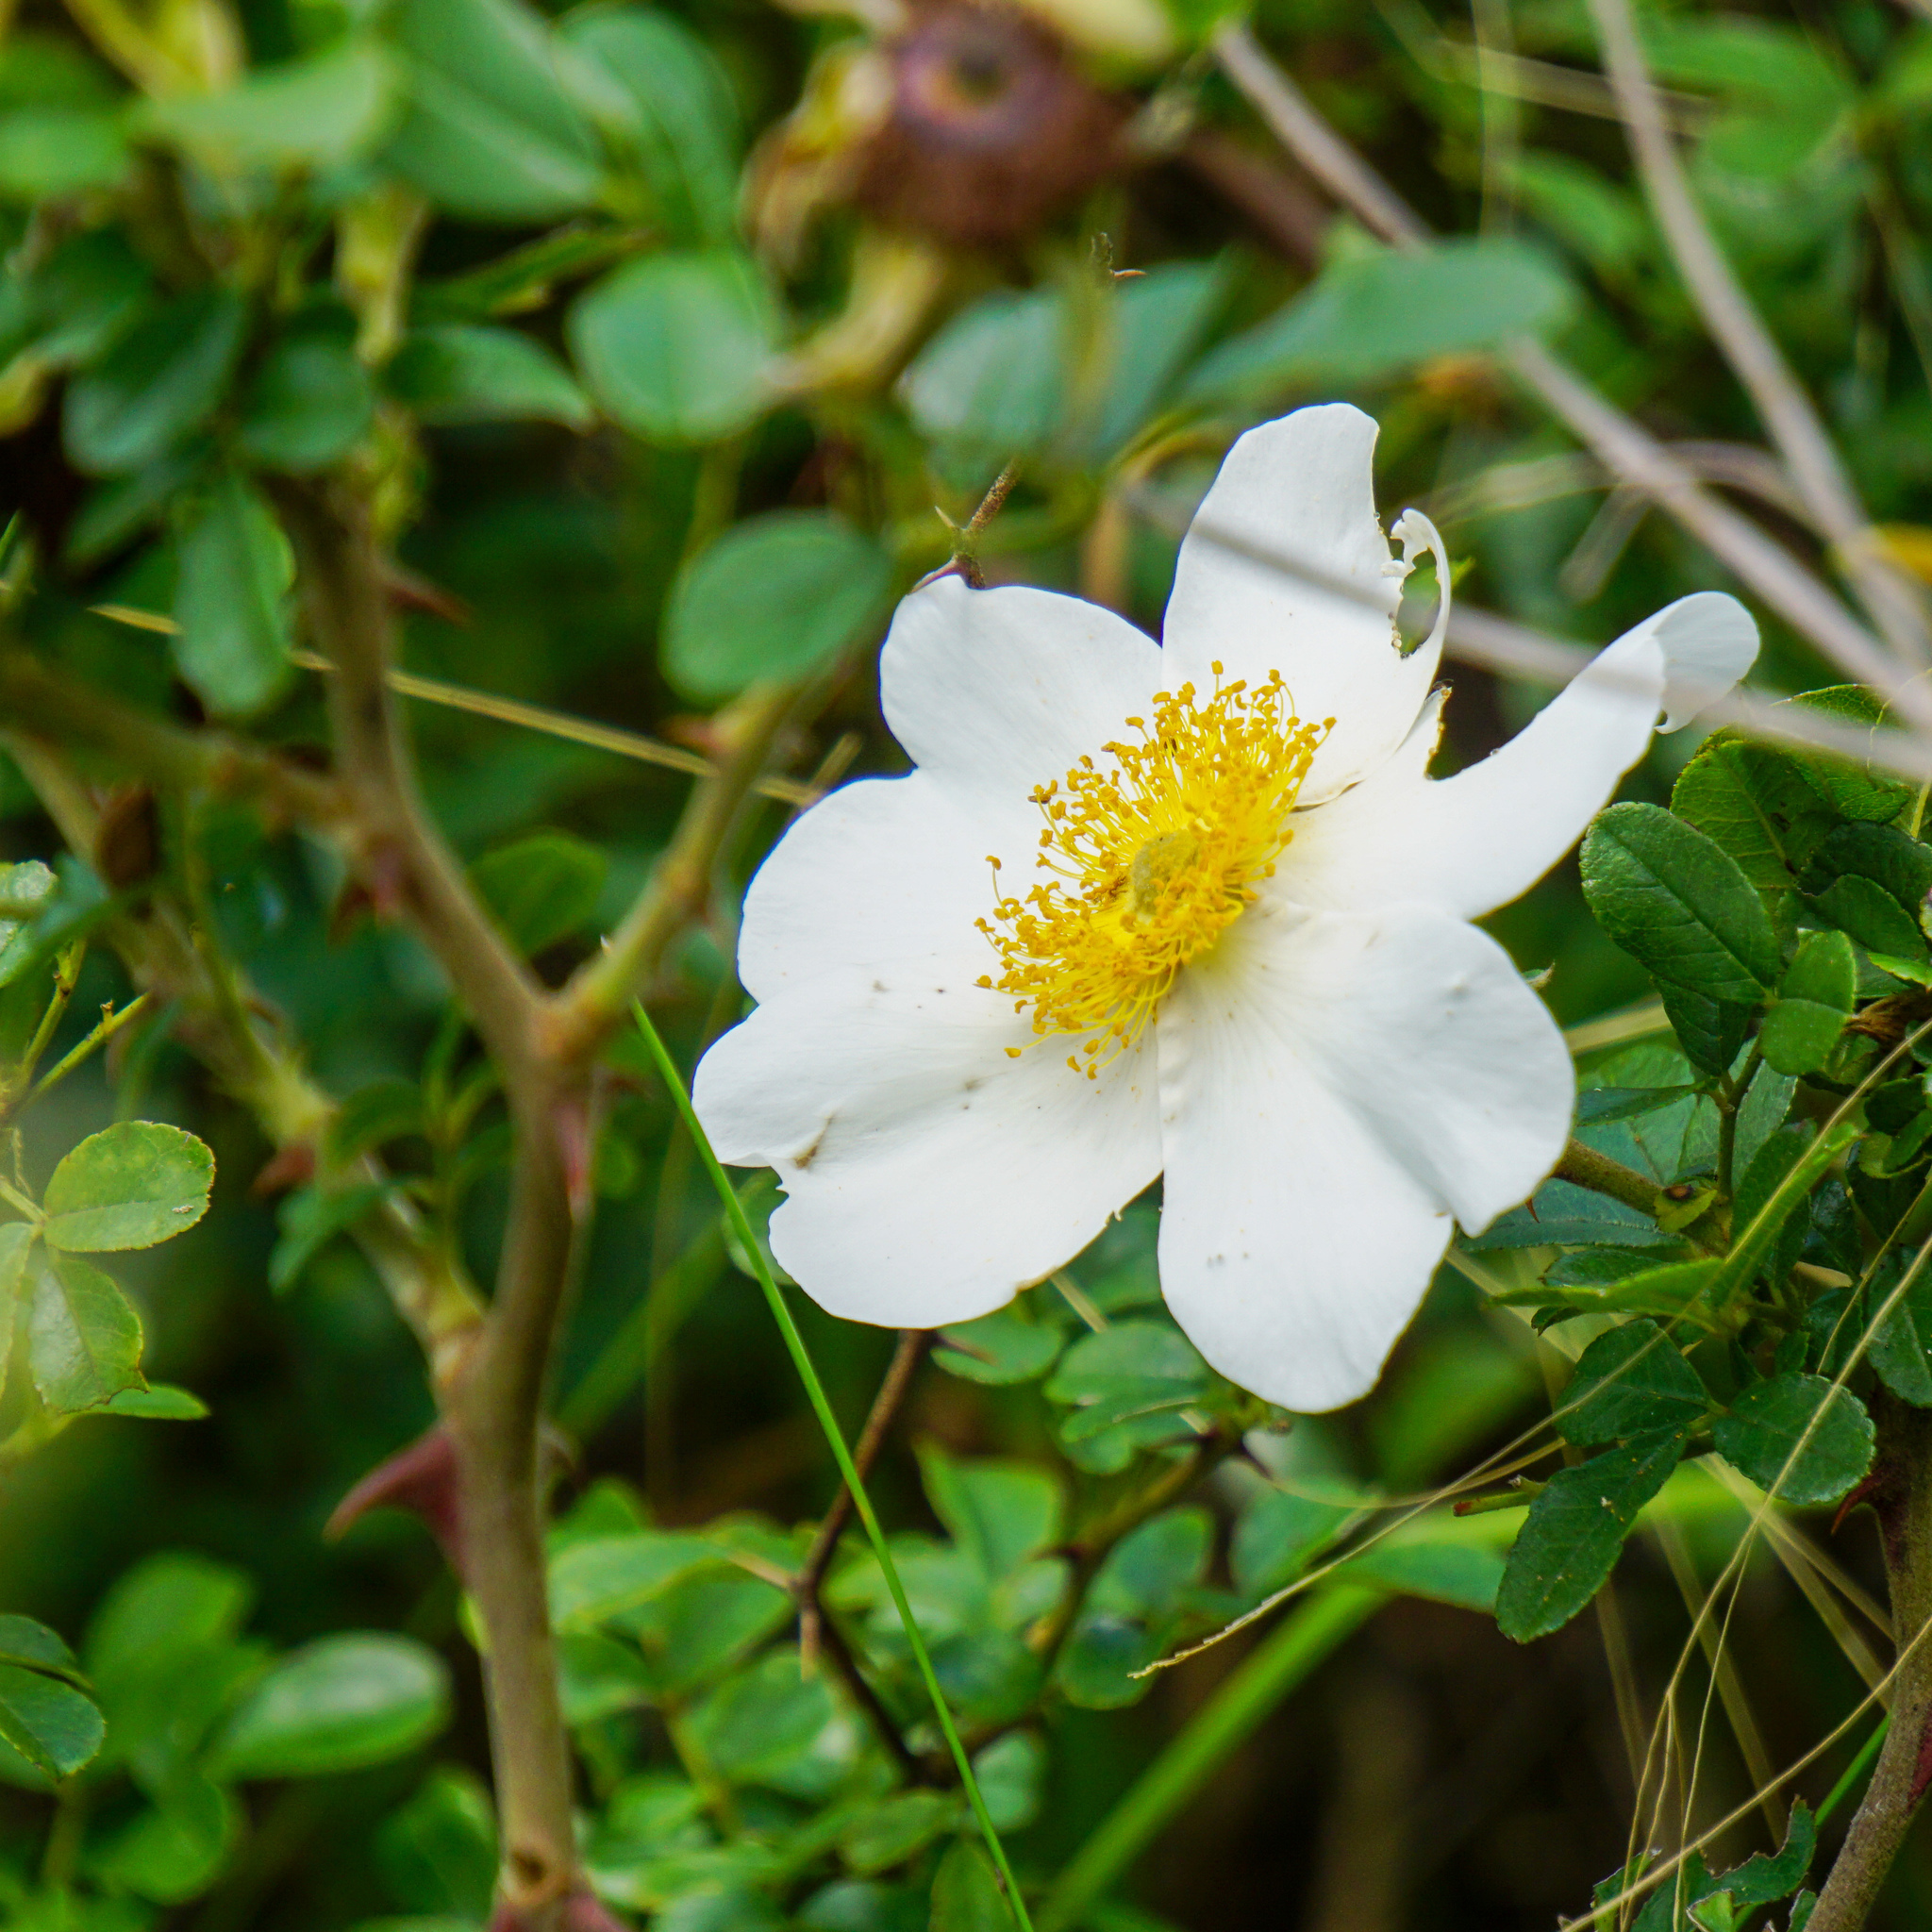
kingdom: Plantae
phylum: Tracheophyta
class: Magnoliopsida
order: Rosales
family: Rosaceae
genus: Rosa
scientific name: Rosa bracteata
